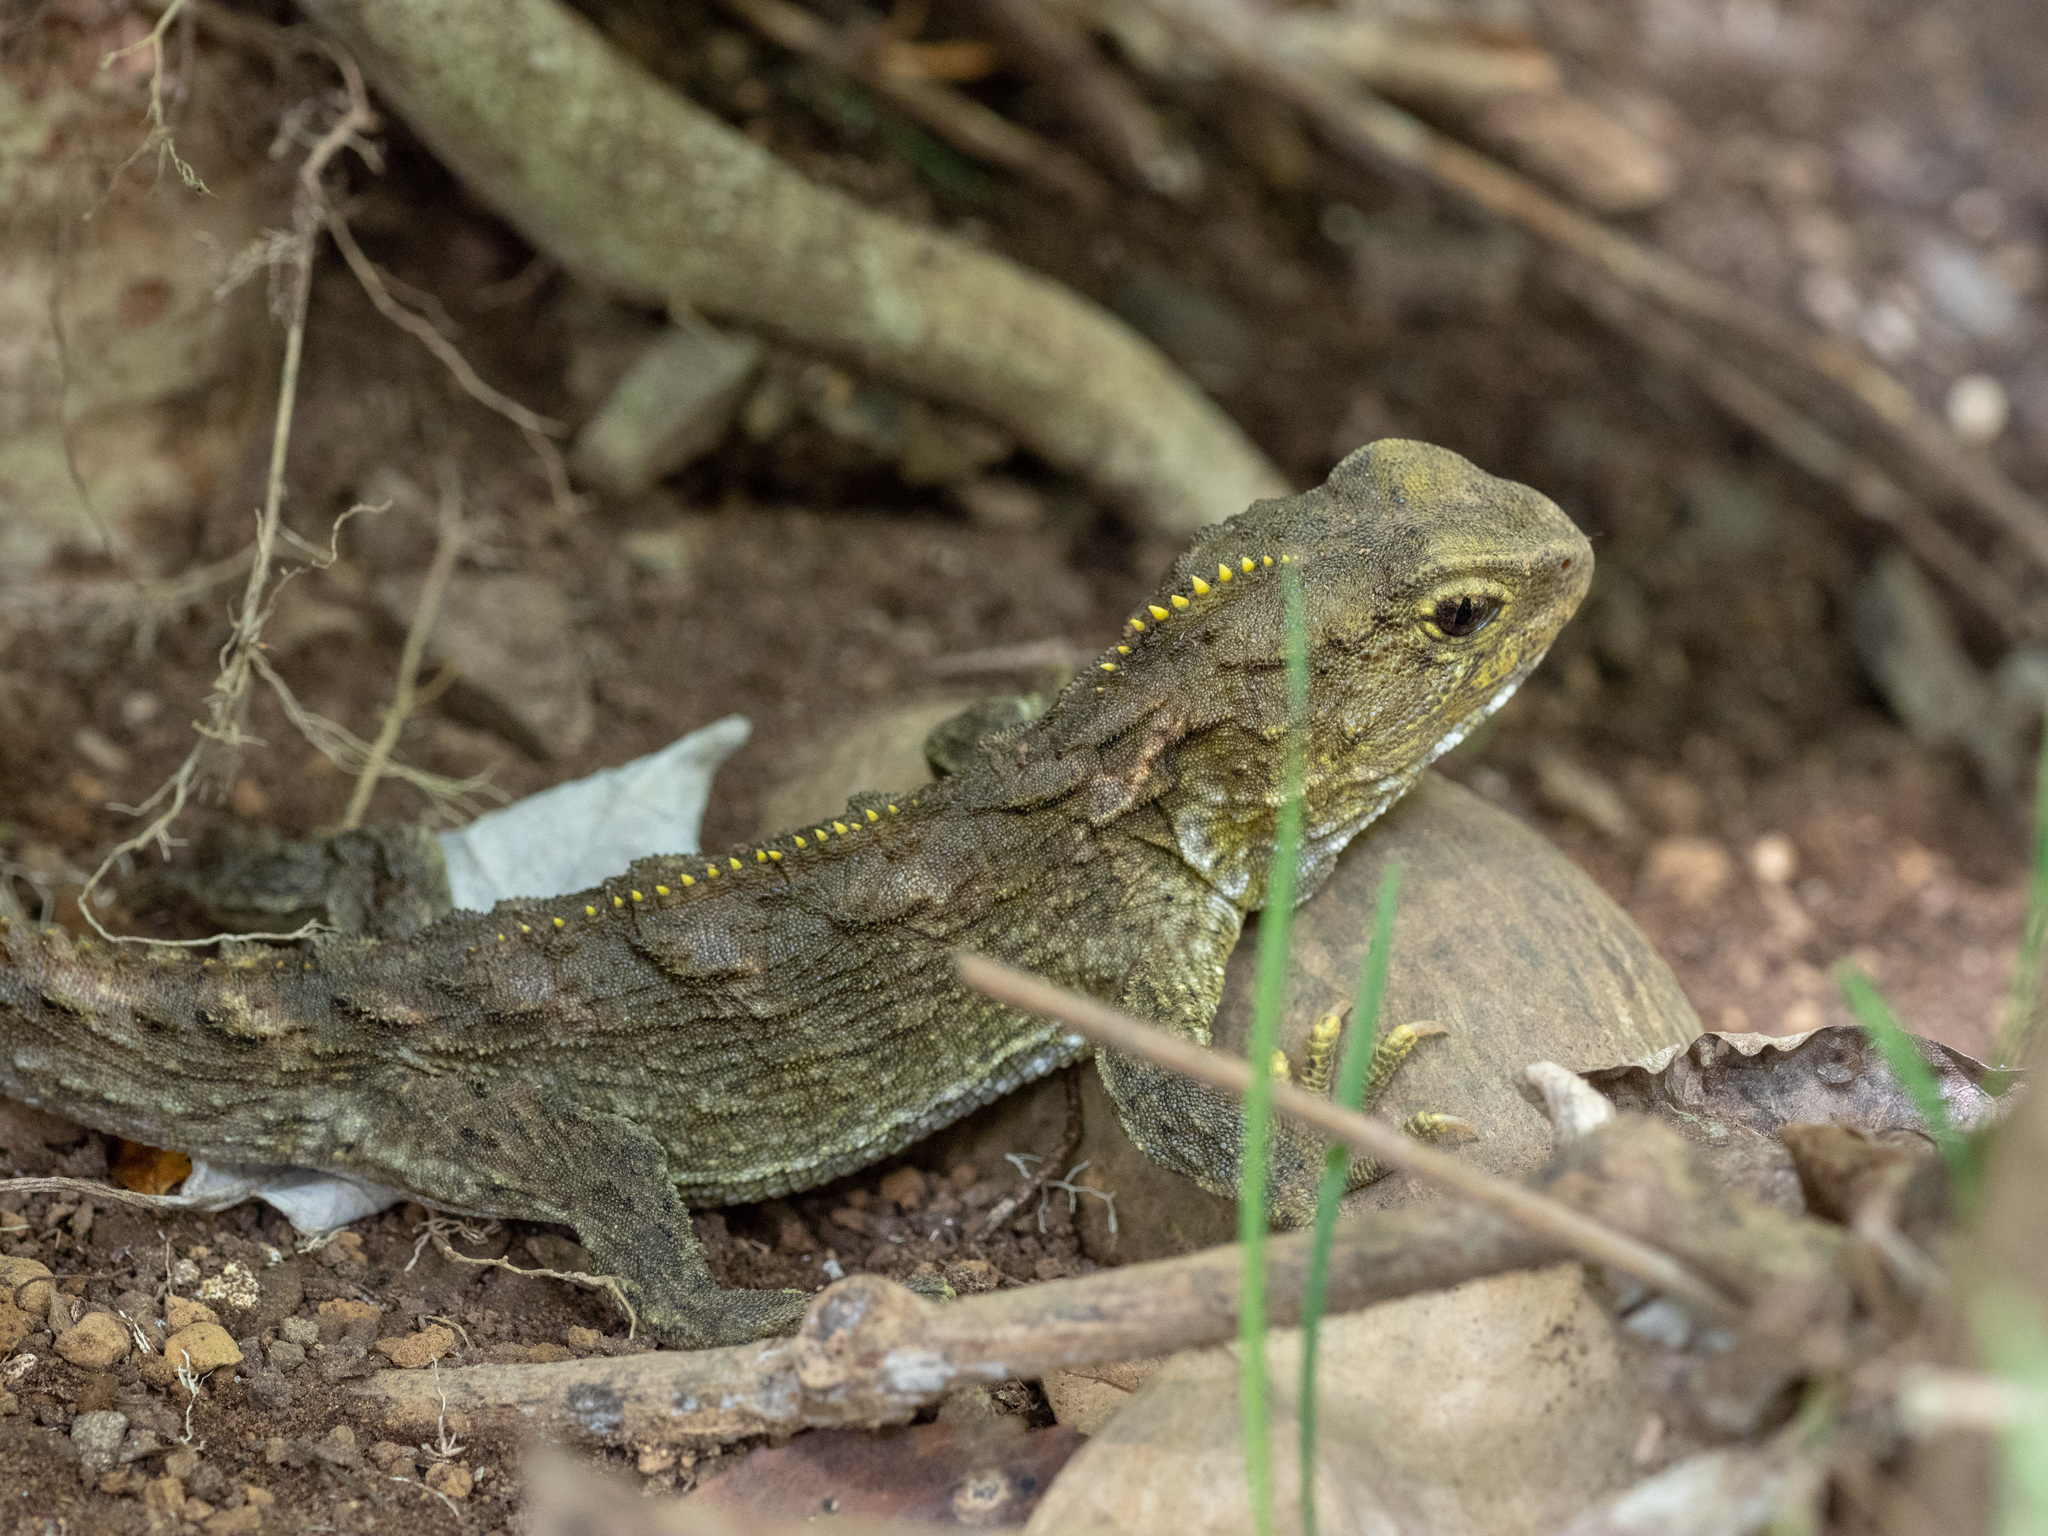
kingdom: Animalia
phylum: Chordata
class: Sphenodontia
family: Sphenodontidae
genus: Sphenodon
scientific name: Sphenodon punctatus
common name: Tuatara
